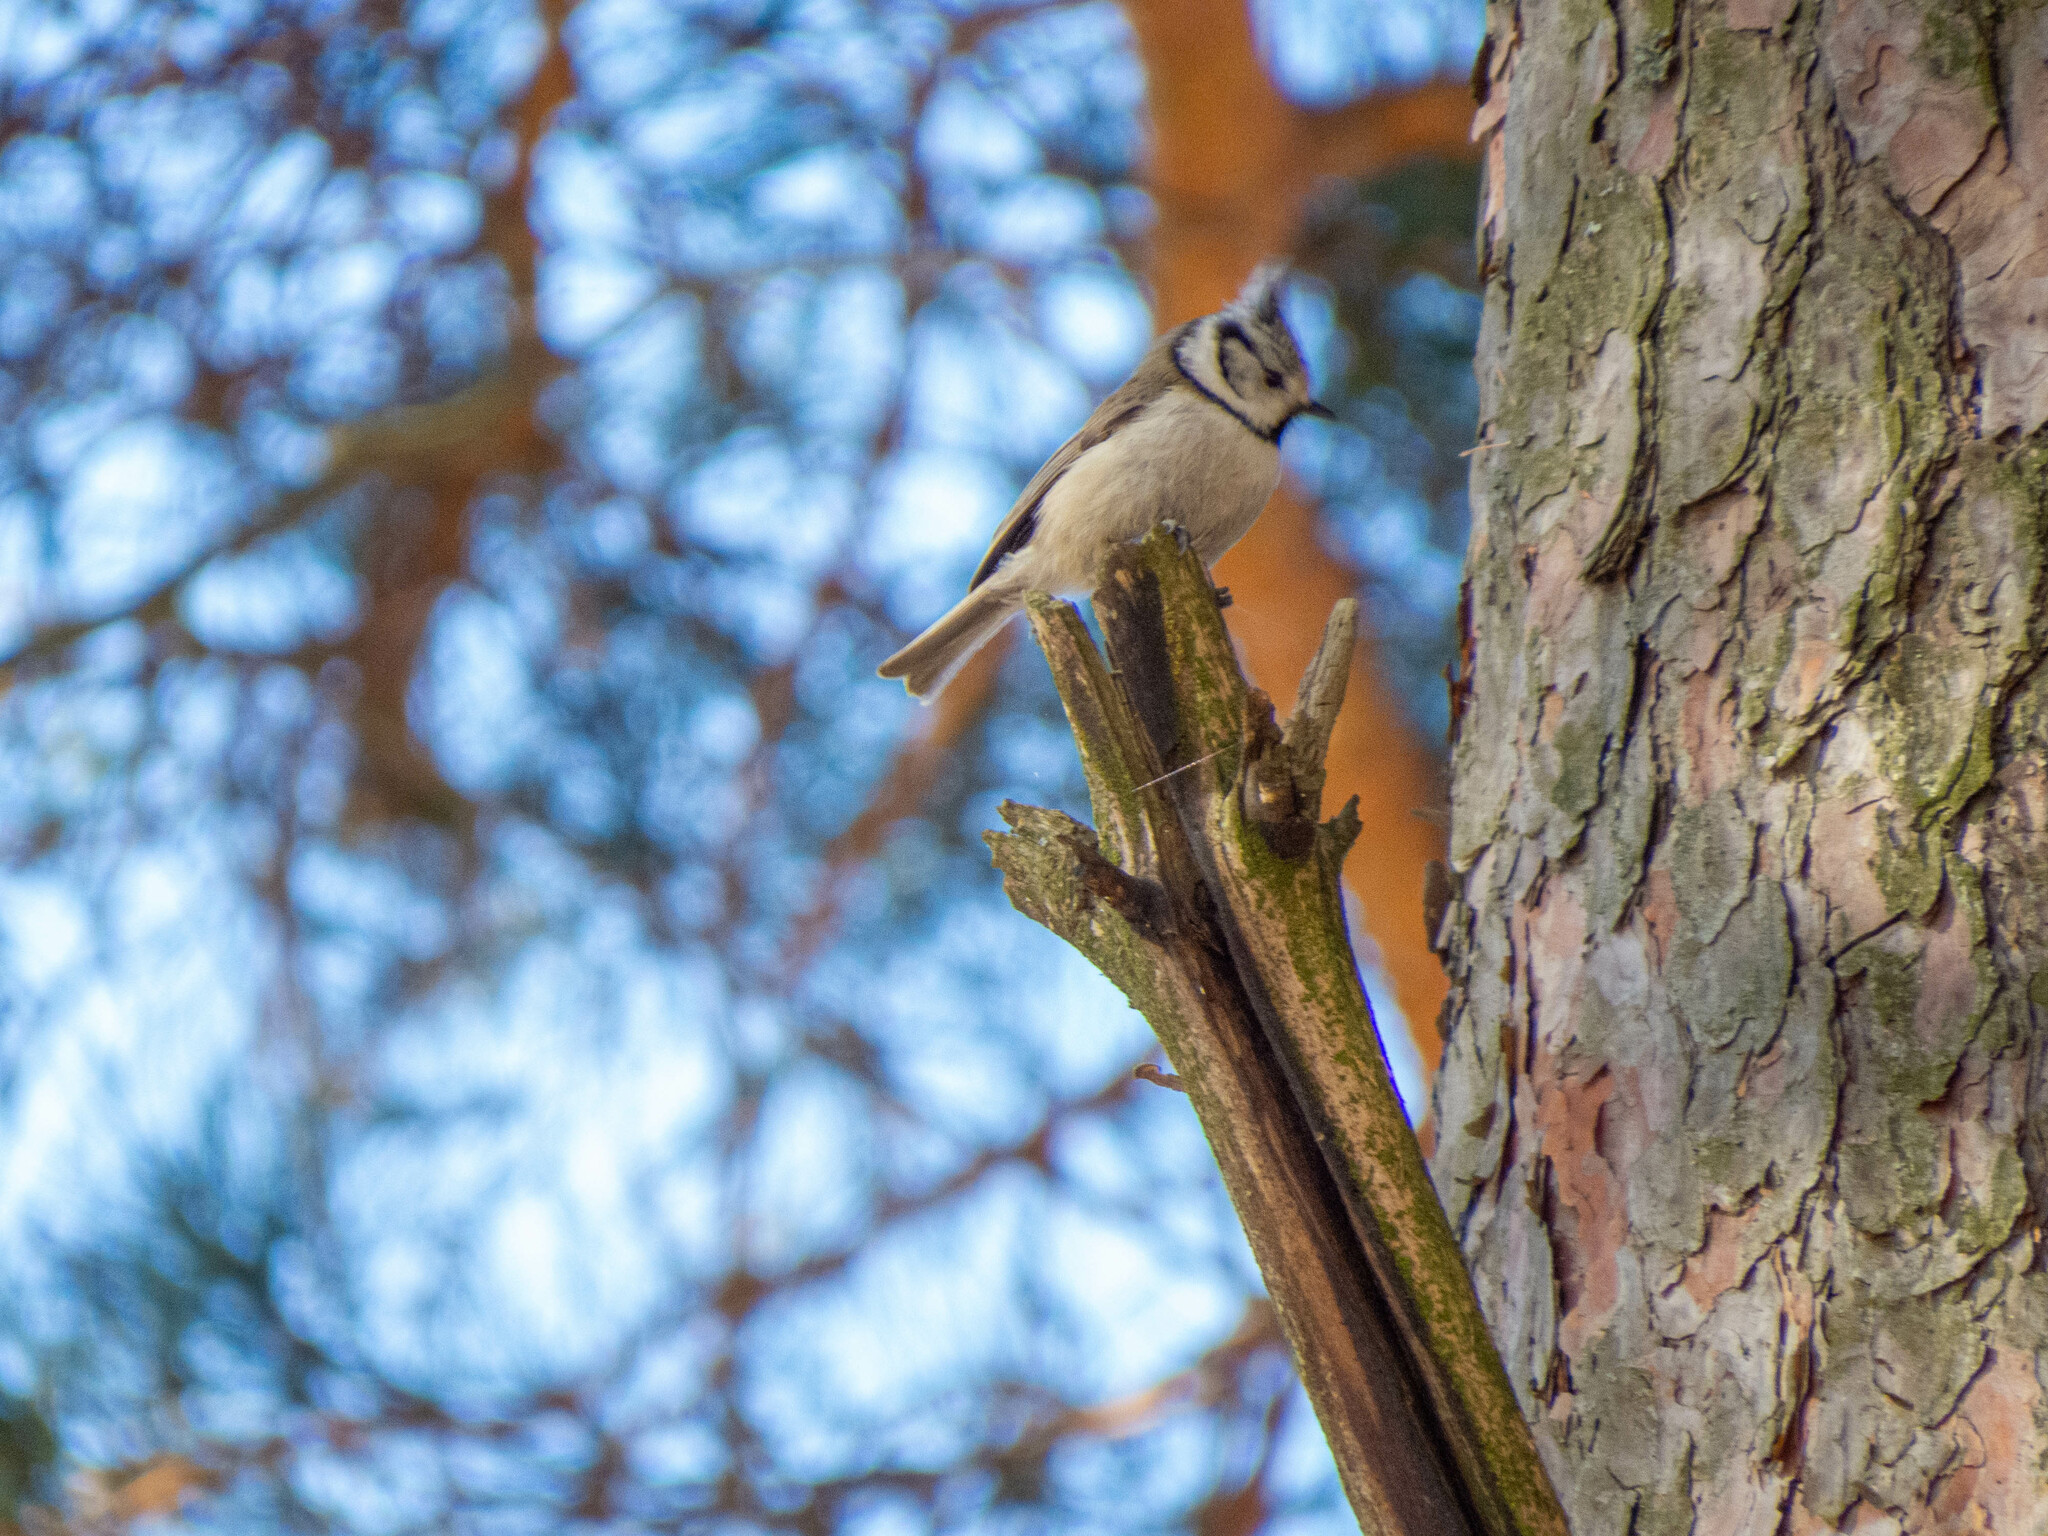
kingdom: Animalia
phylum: Chordata
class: Aves
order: Passeriformes
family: Paridae
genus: Lophophanes
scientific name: Lophophanes cristatus
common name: European crested tit
